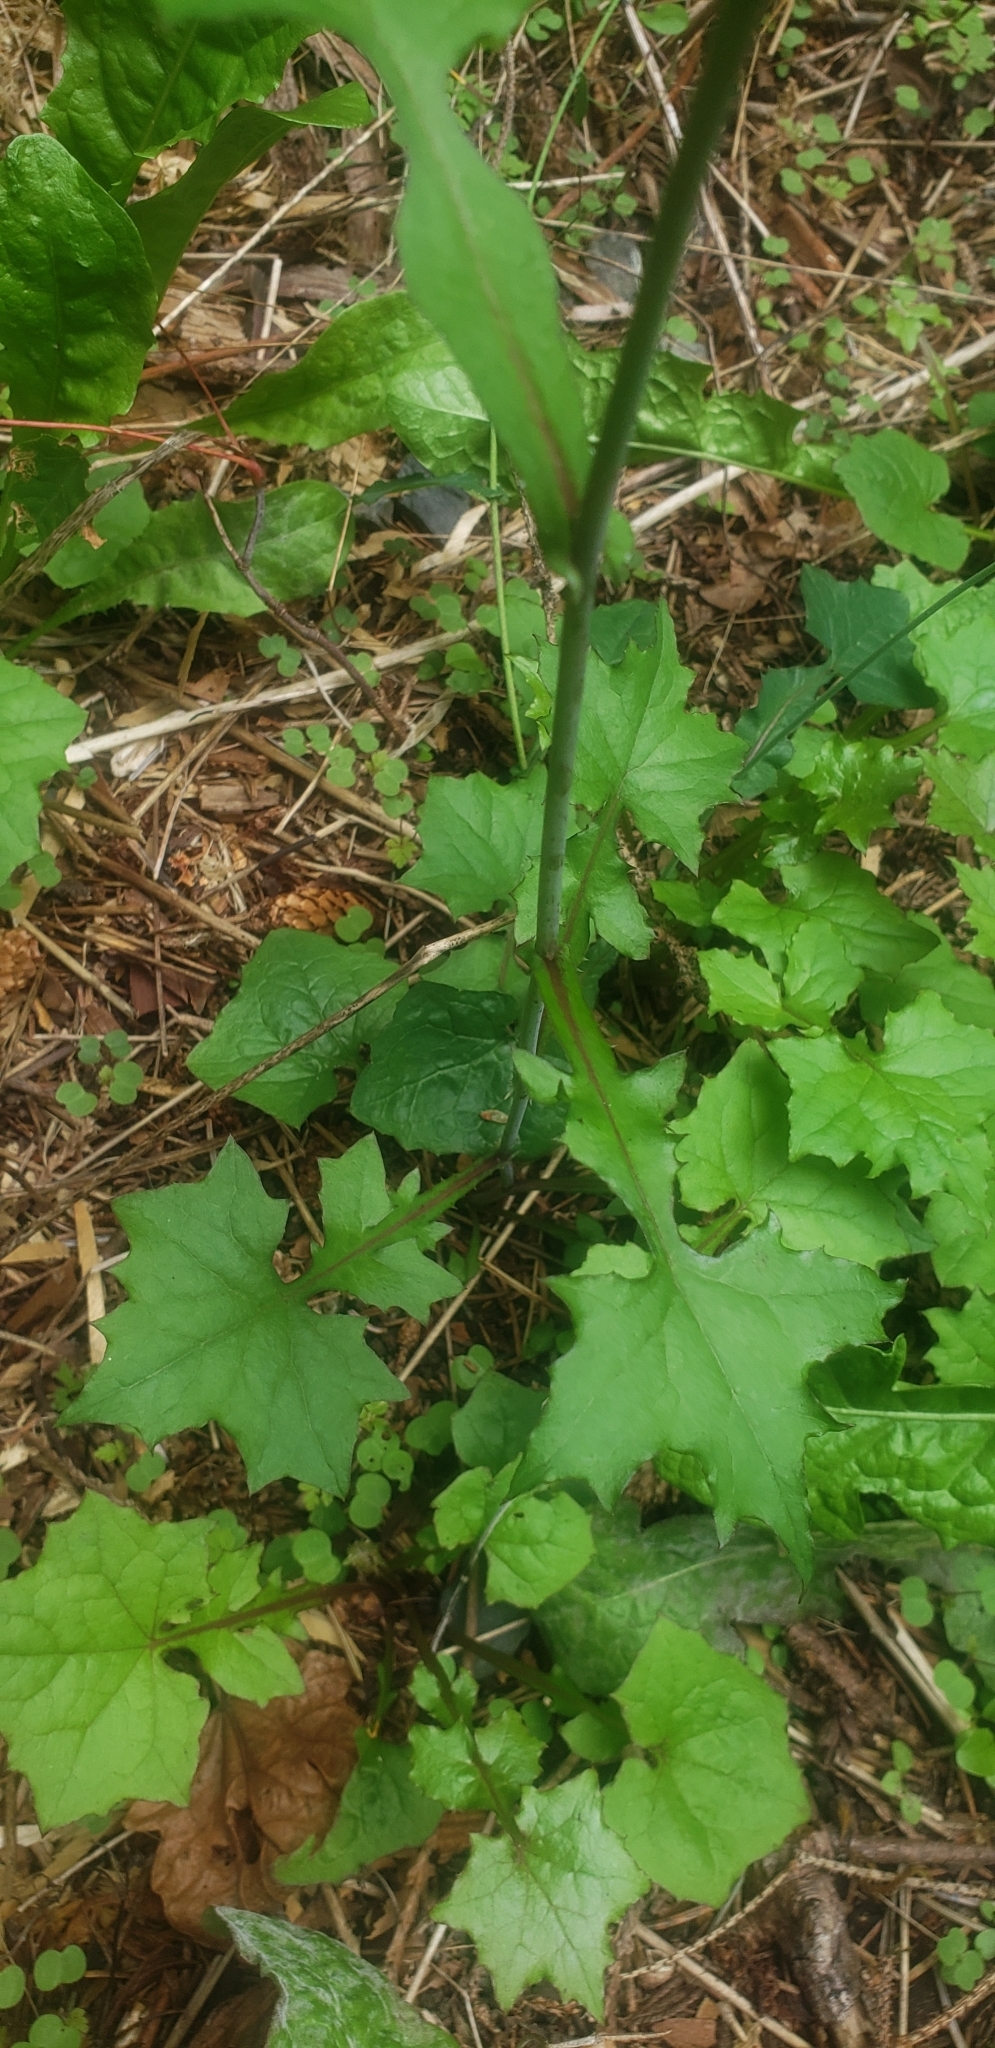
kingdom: Plantae
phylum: Tracheophyta
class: Magnoliopsida
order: Asterales
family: Asteraceae
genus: Mycelis
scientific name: Mycelis muralis
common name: Wall lettuce
